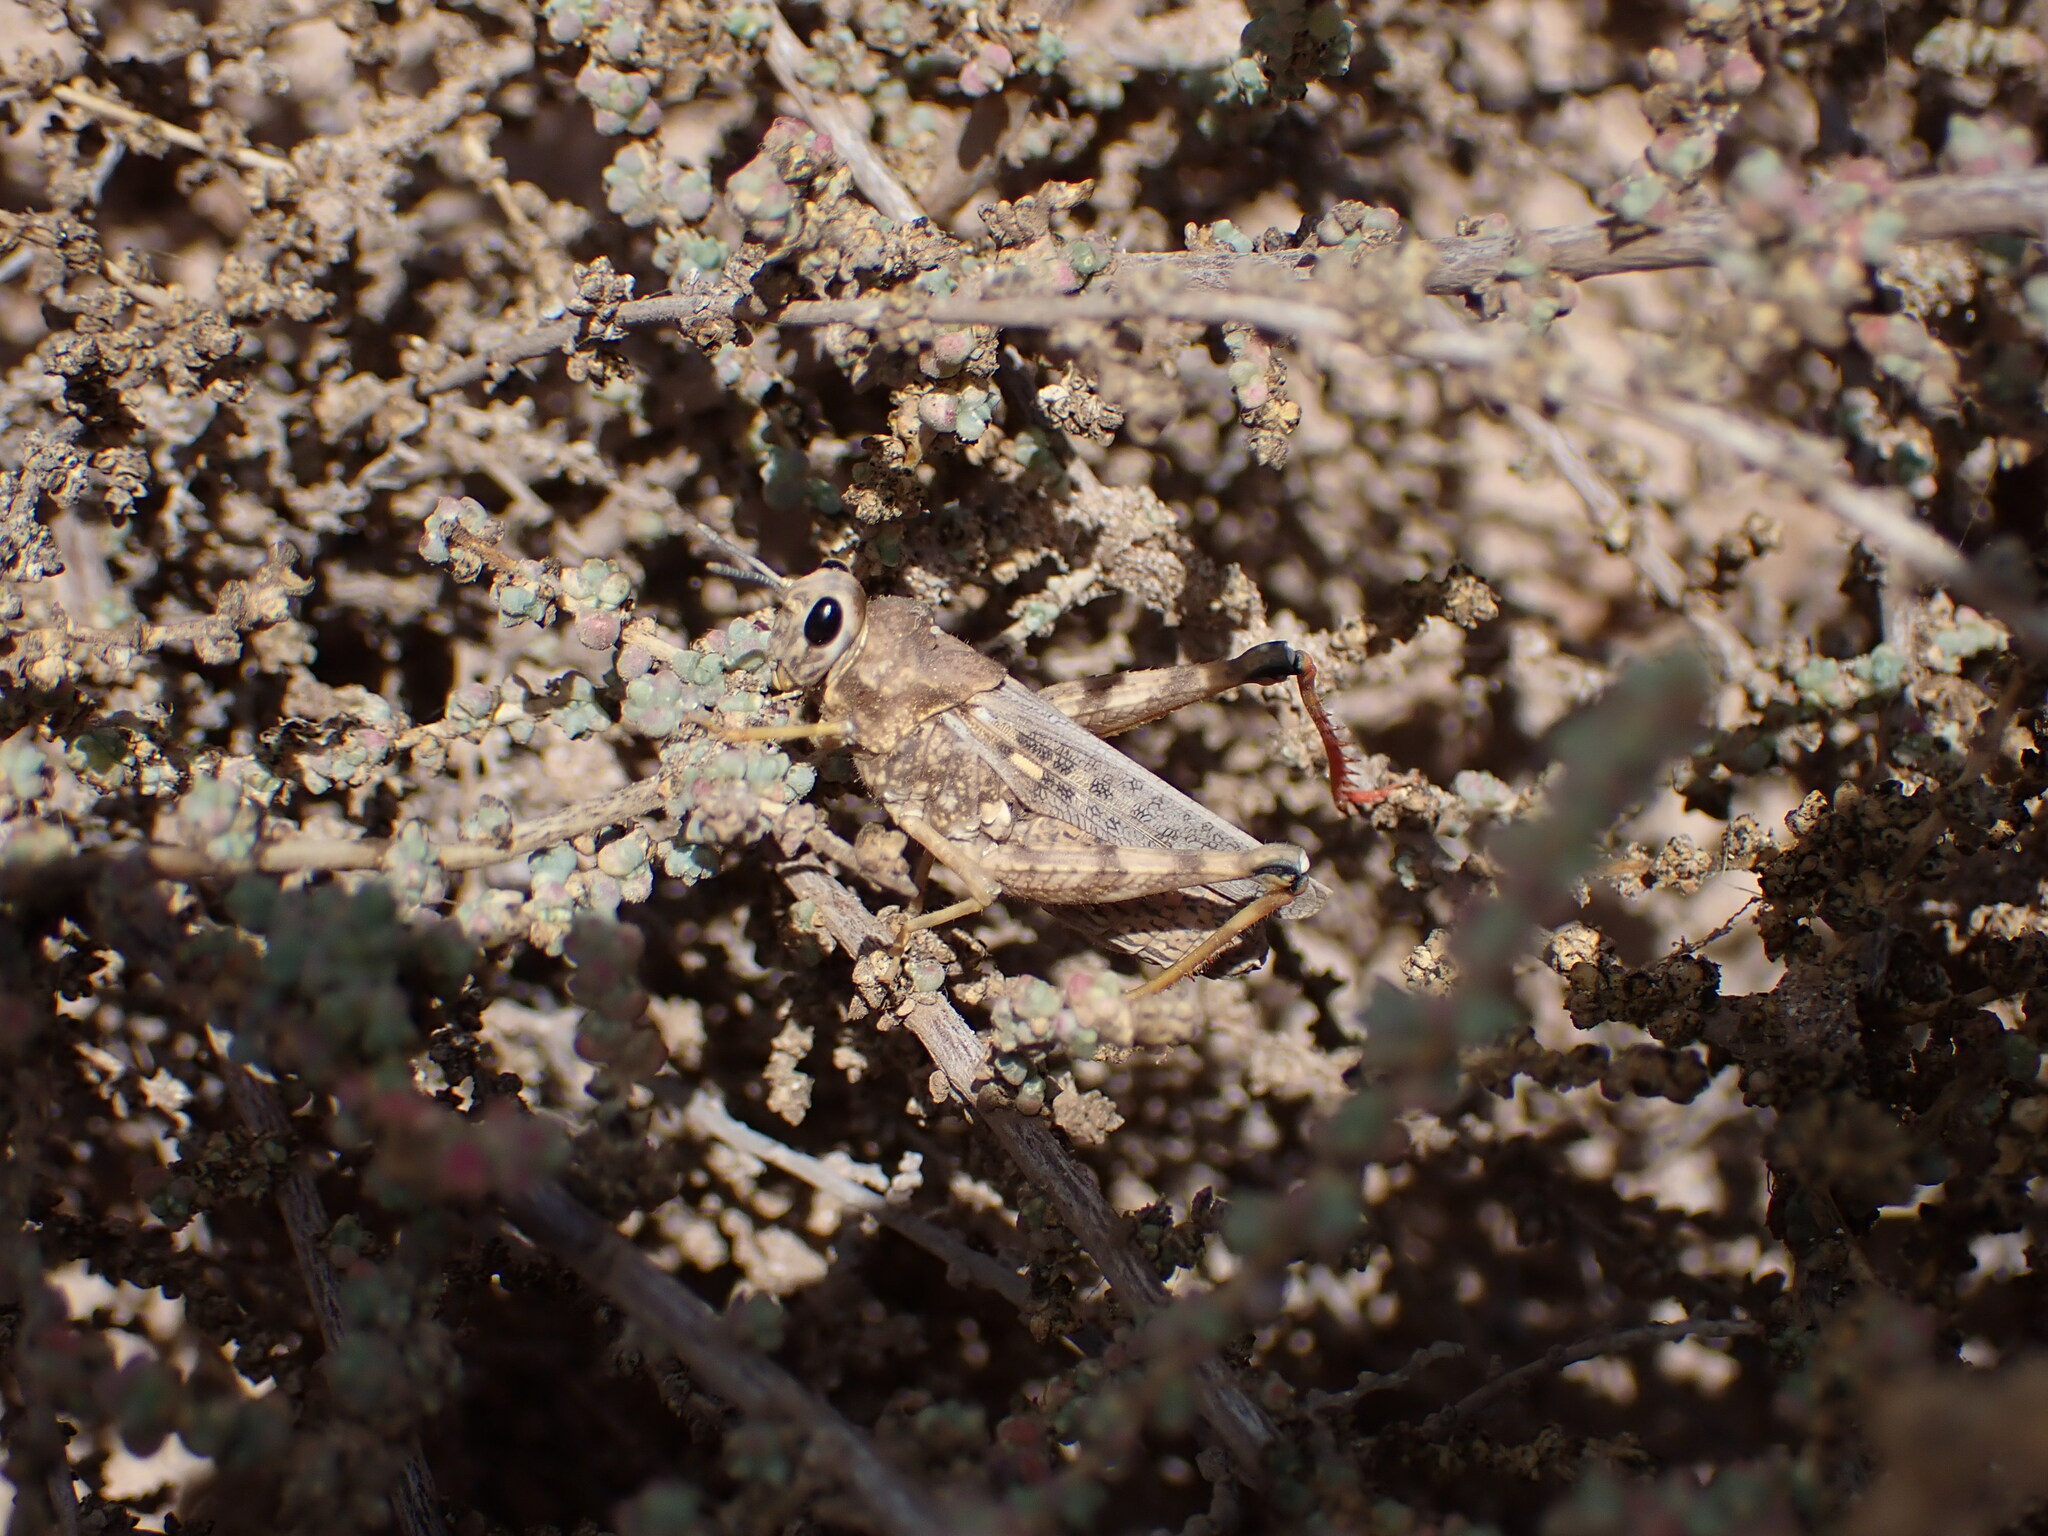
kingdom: Animalia
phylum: Arthropoda
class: Insecta
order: Orthoptera
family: Dericorythidae
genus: Dericorys
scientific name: Dericorys lobata
